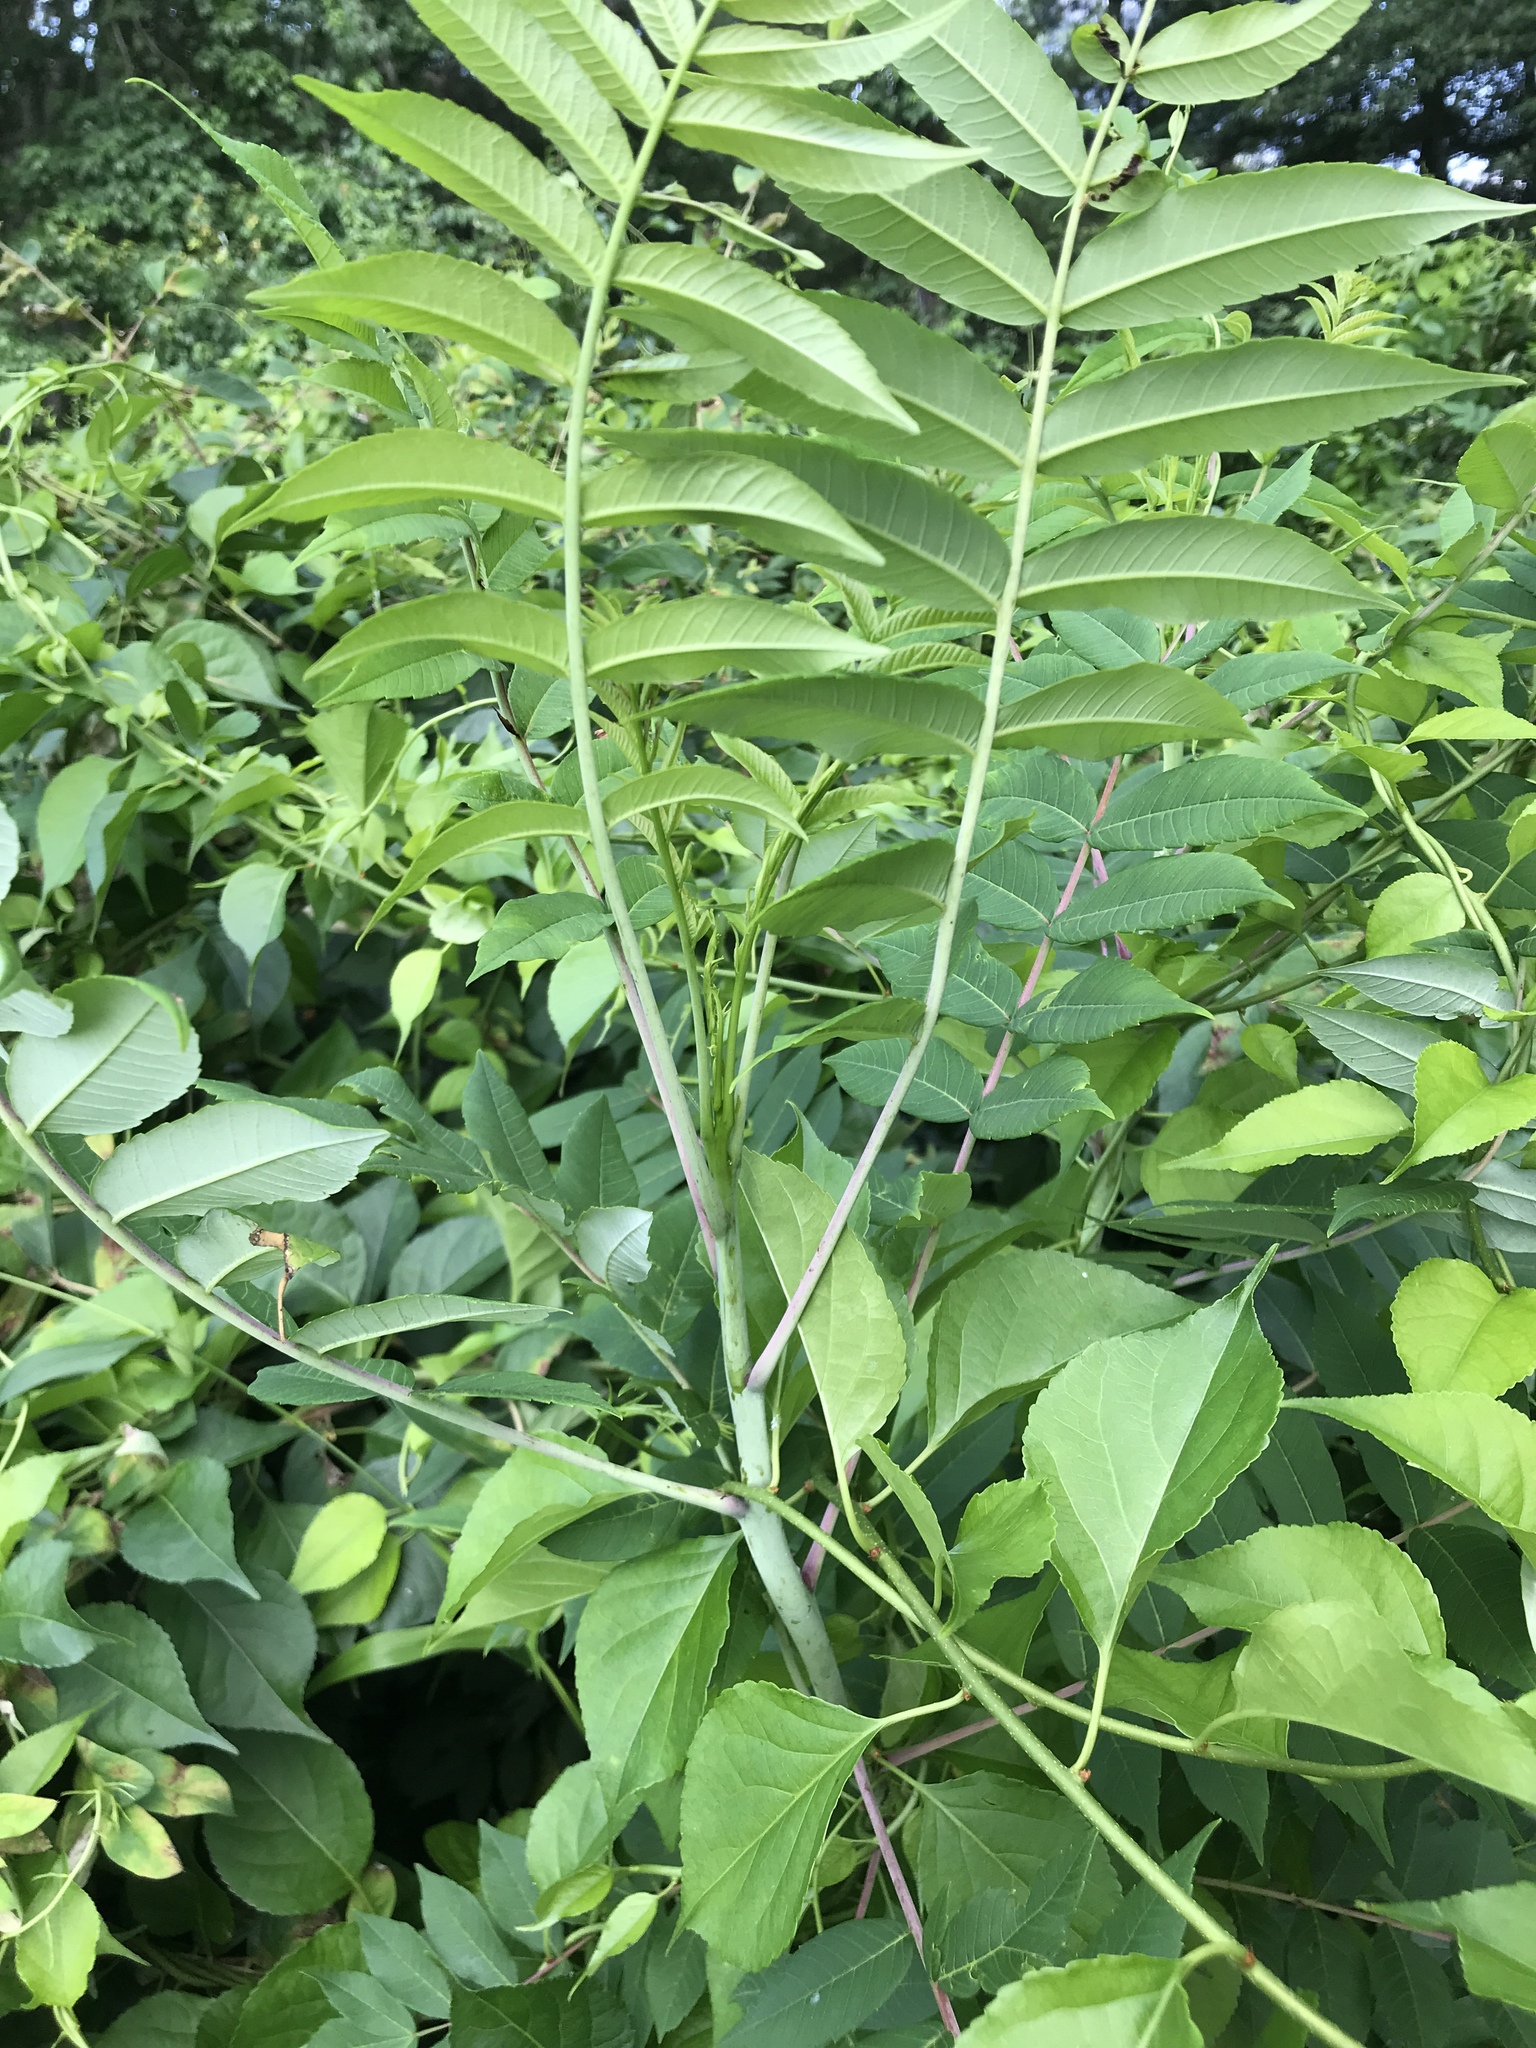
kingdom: Plantae
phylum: Tracheophyta
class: Magnoliopsida
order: Sapindales
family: Anacardiaceae
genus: Rhus
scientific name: Rhus glabra
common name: Scarlet sumac
